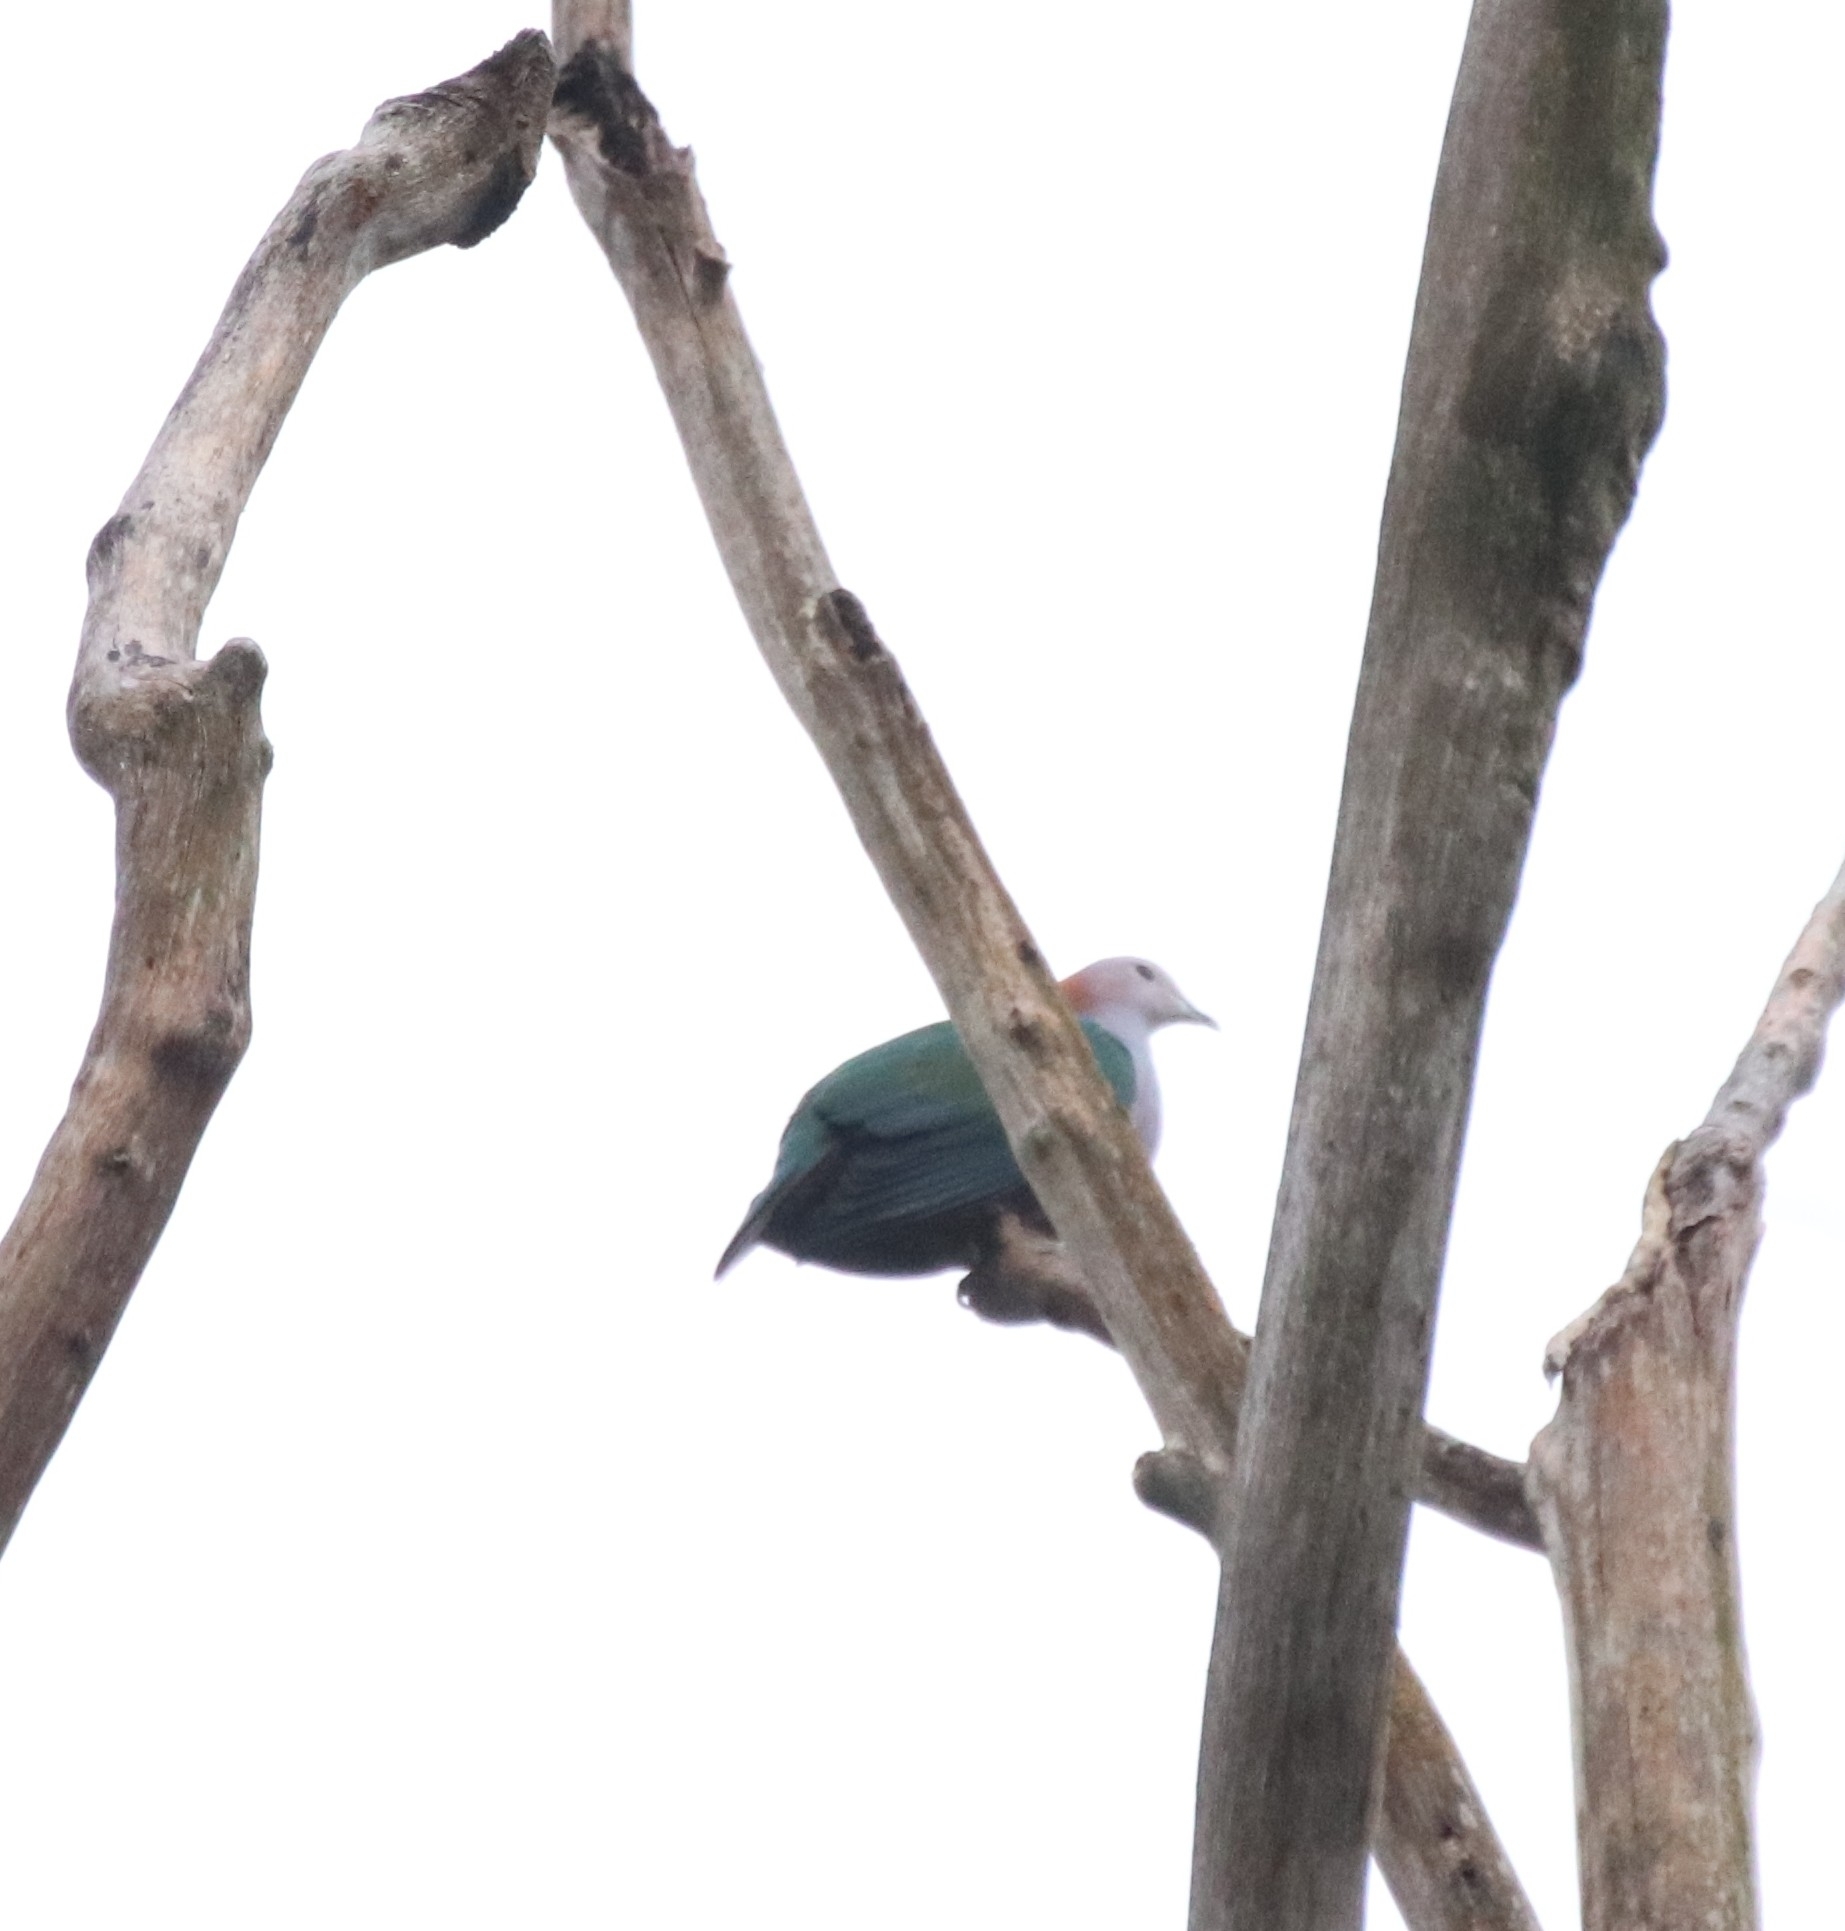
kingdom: Animalia
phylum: Chordata
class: Aves
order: Columbiformes
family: Columbidae
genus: Ducula
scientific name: Ducula aenea
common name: Green imperial pigeon
